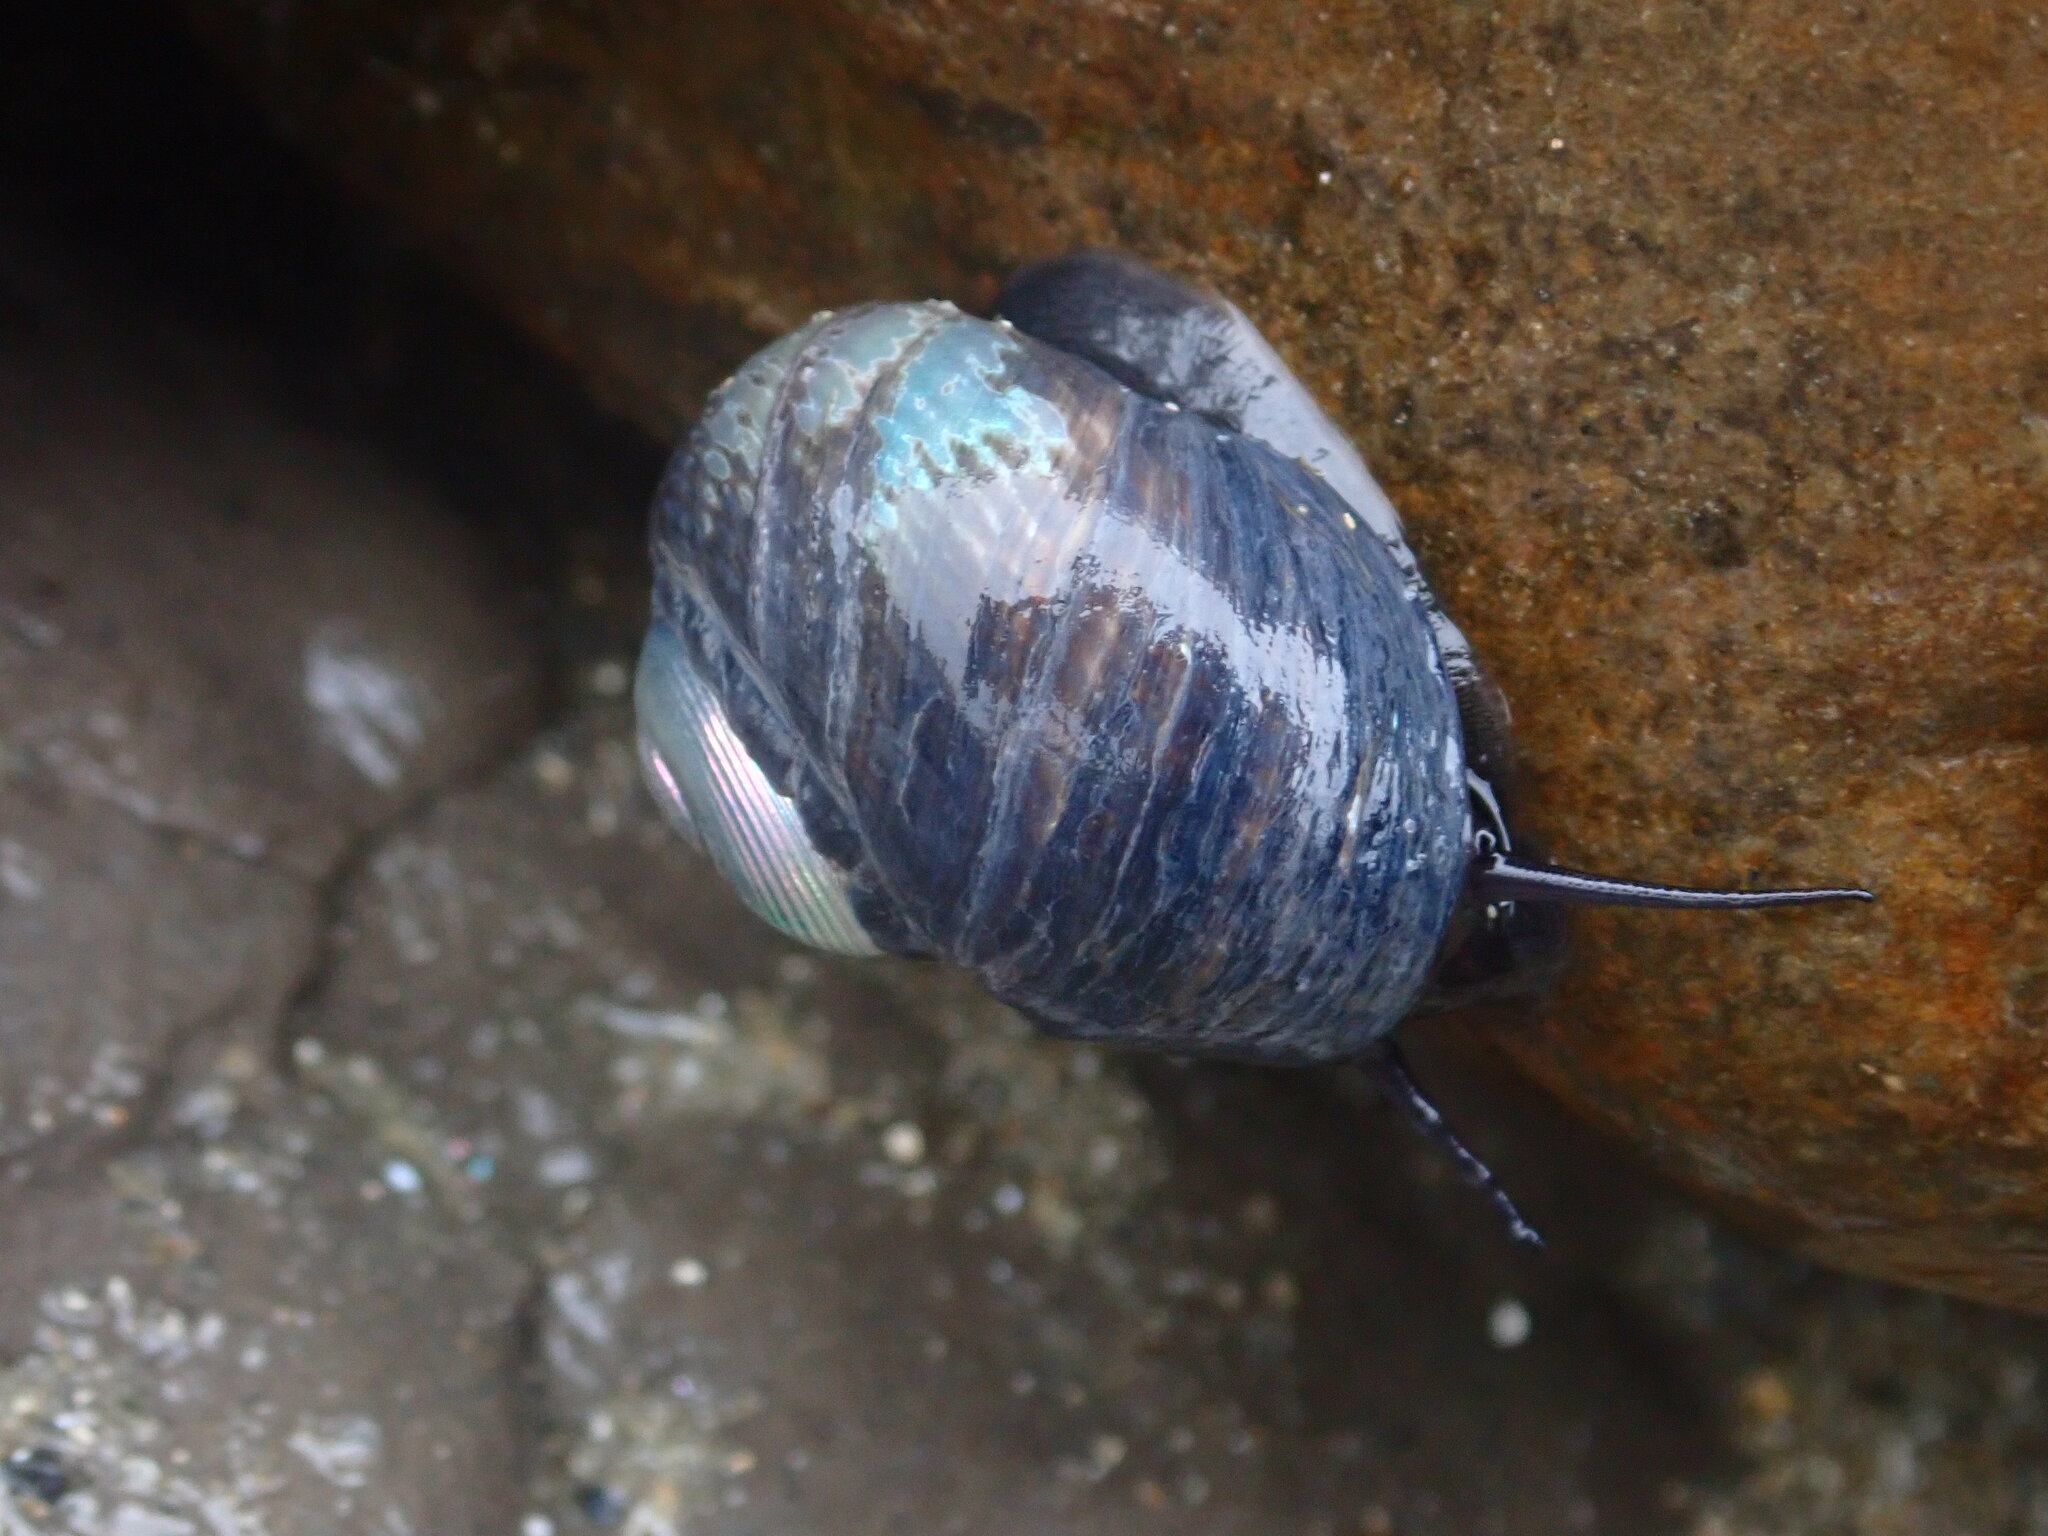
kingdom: Animalia
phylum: Mollusca
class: Gastropoda
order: Trochida
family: Trochidae
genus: Diloma
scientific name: Diloma nigerrimum
